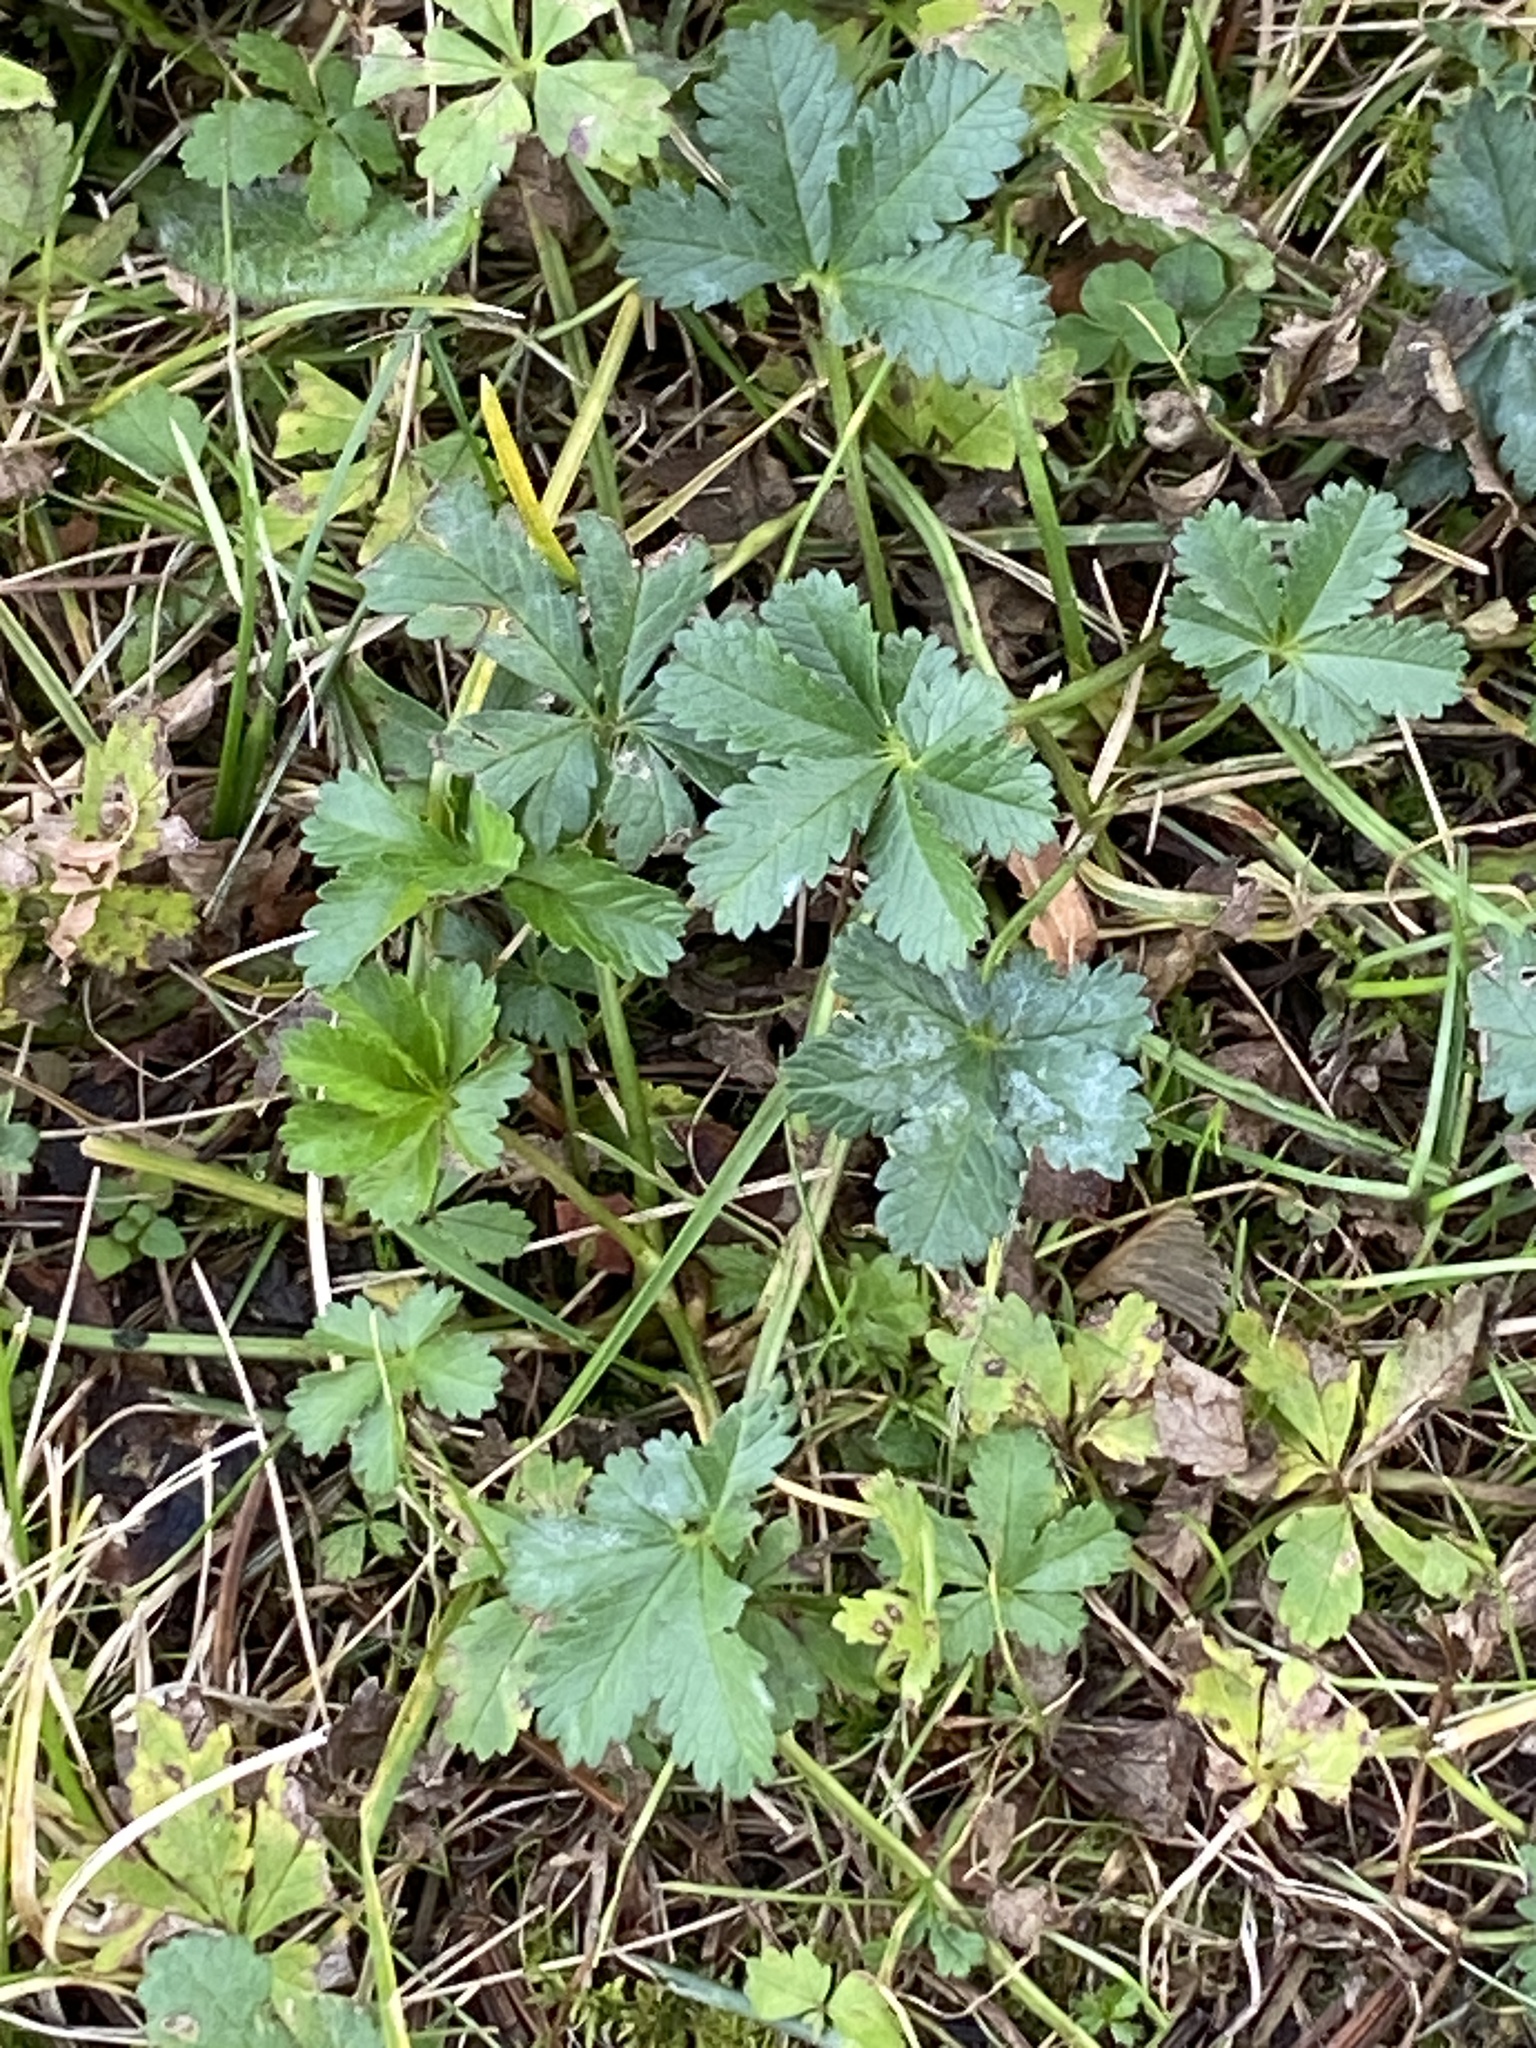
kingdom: Plantae
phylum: Tracheophyta
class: Magnoliopsida
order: Rosales
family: Rosaceae
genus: Potentilla
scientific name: Potentilla reptans
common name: Creeping cinquefoil
